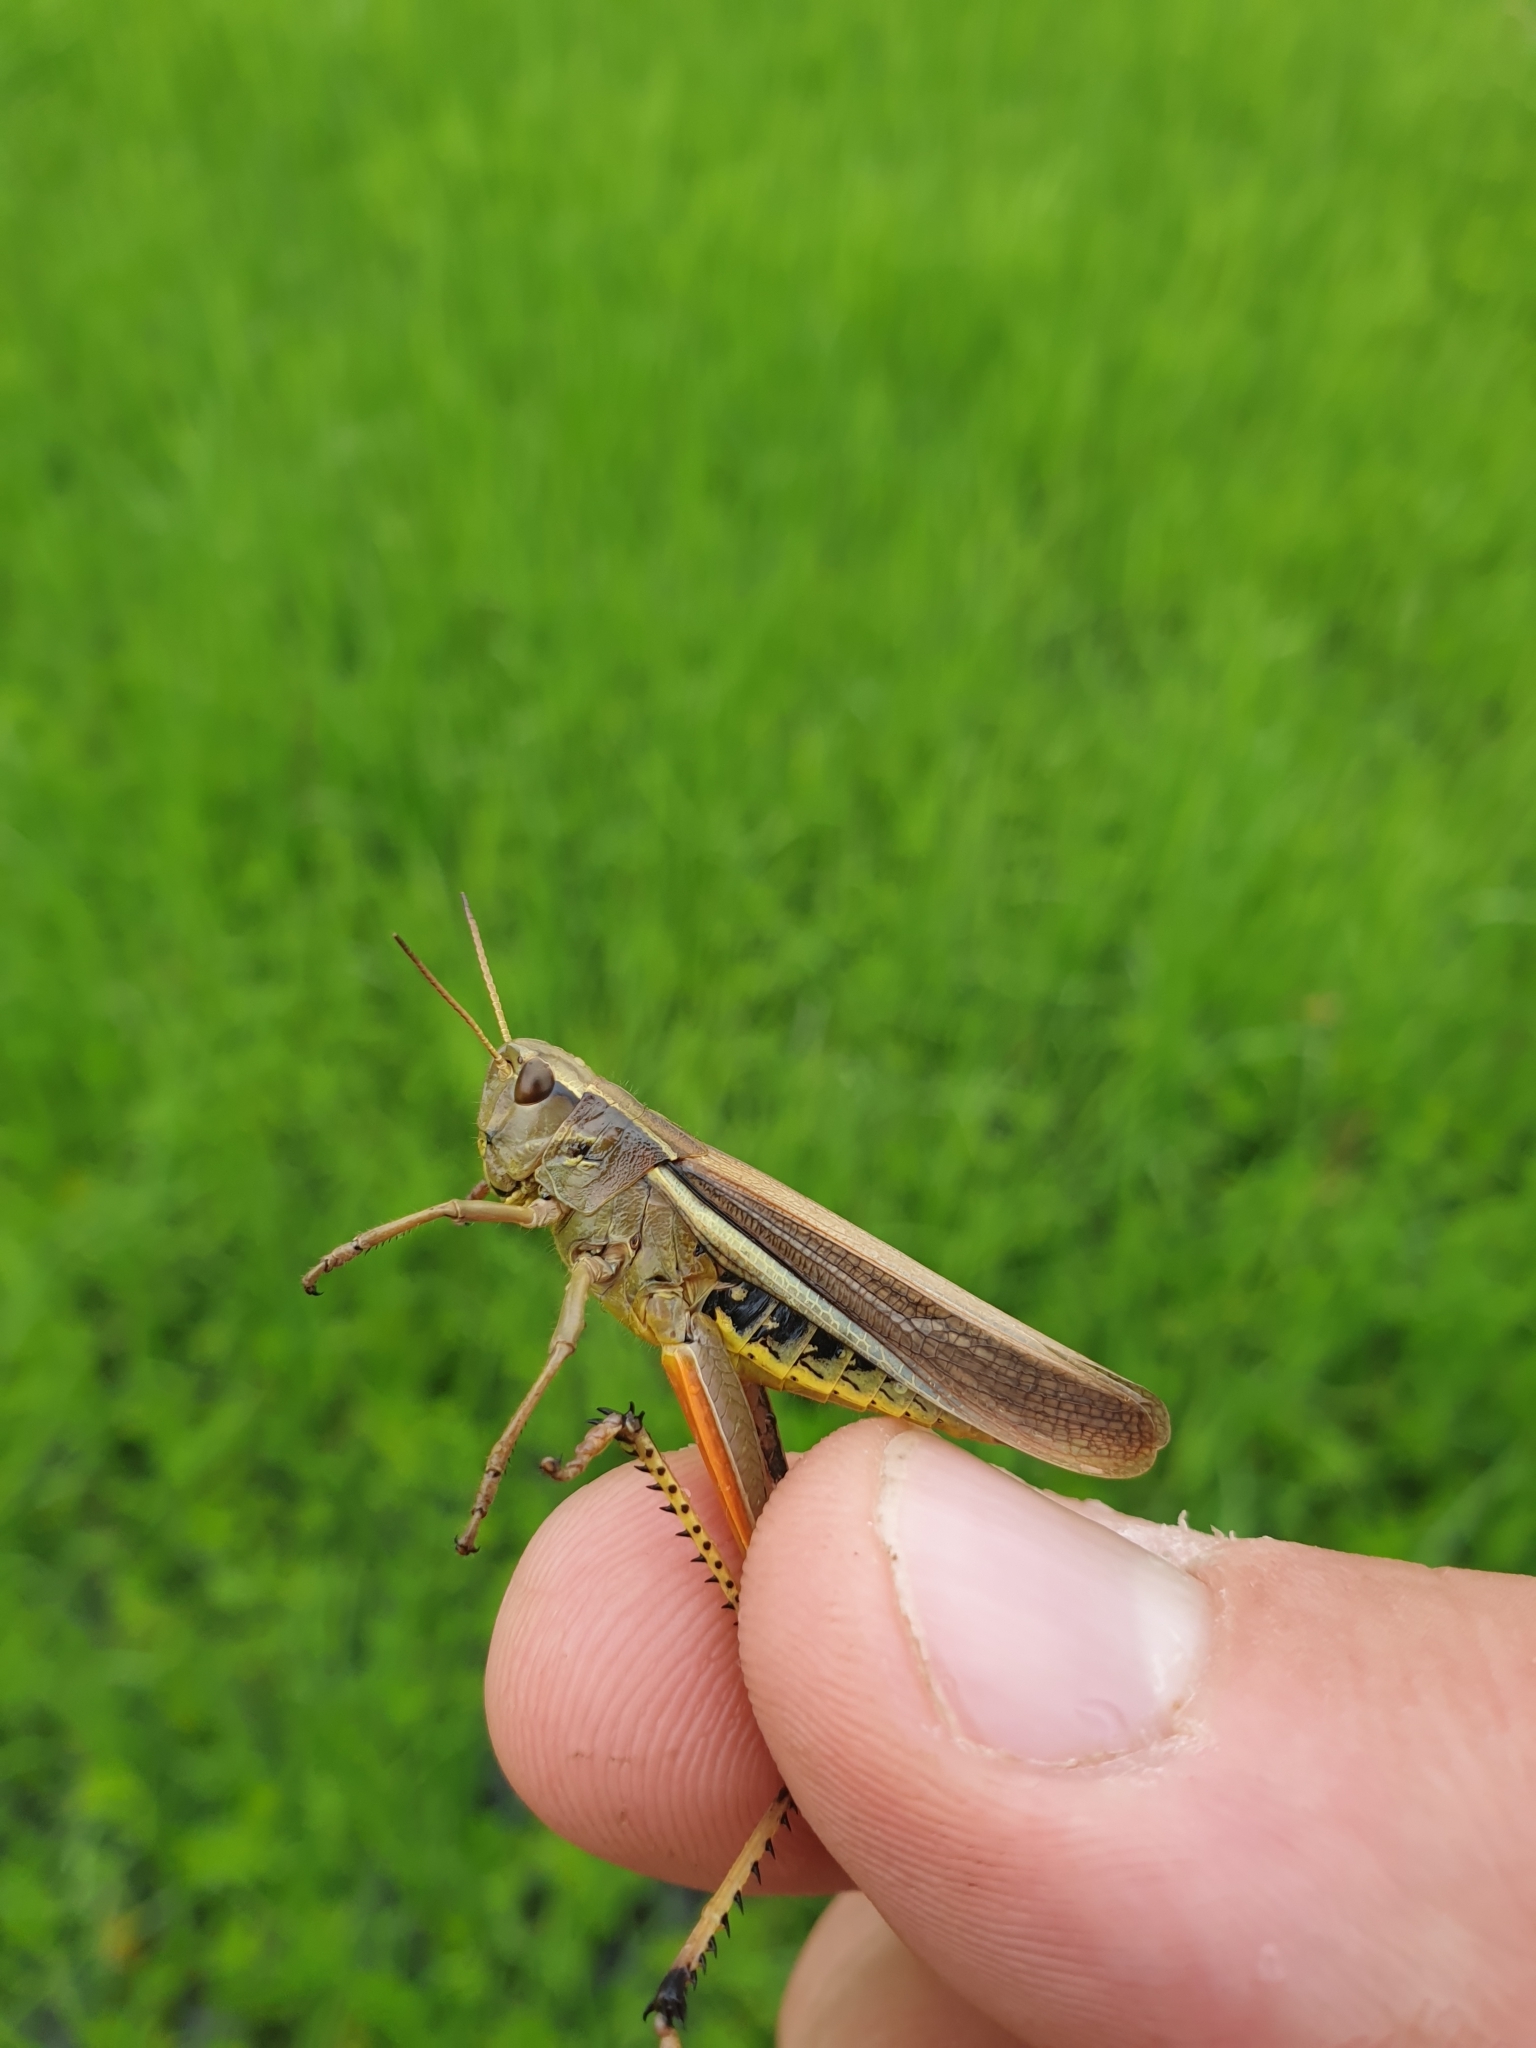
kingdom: Animalia
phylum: Arthropoda
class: Insecta
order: Orthoptera
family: Acrididae
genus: Stethophyma
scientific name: Stethophyma grossum
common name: Large marsh grasshopper
